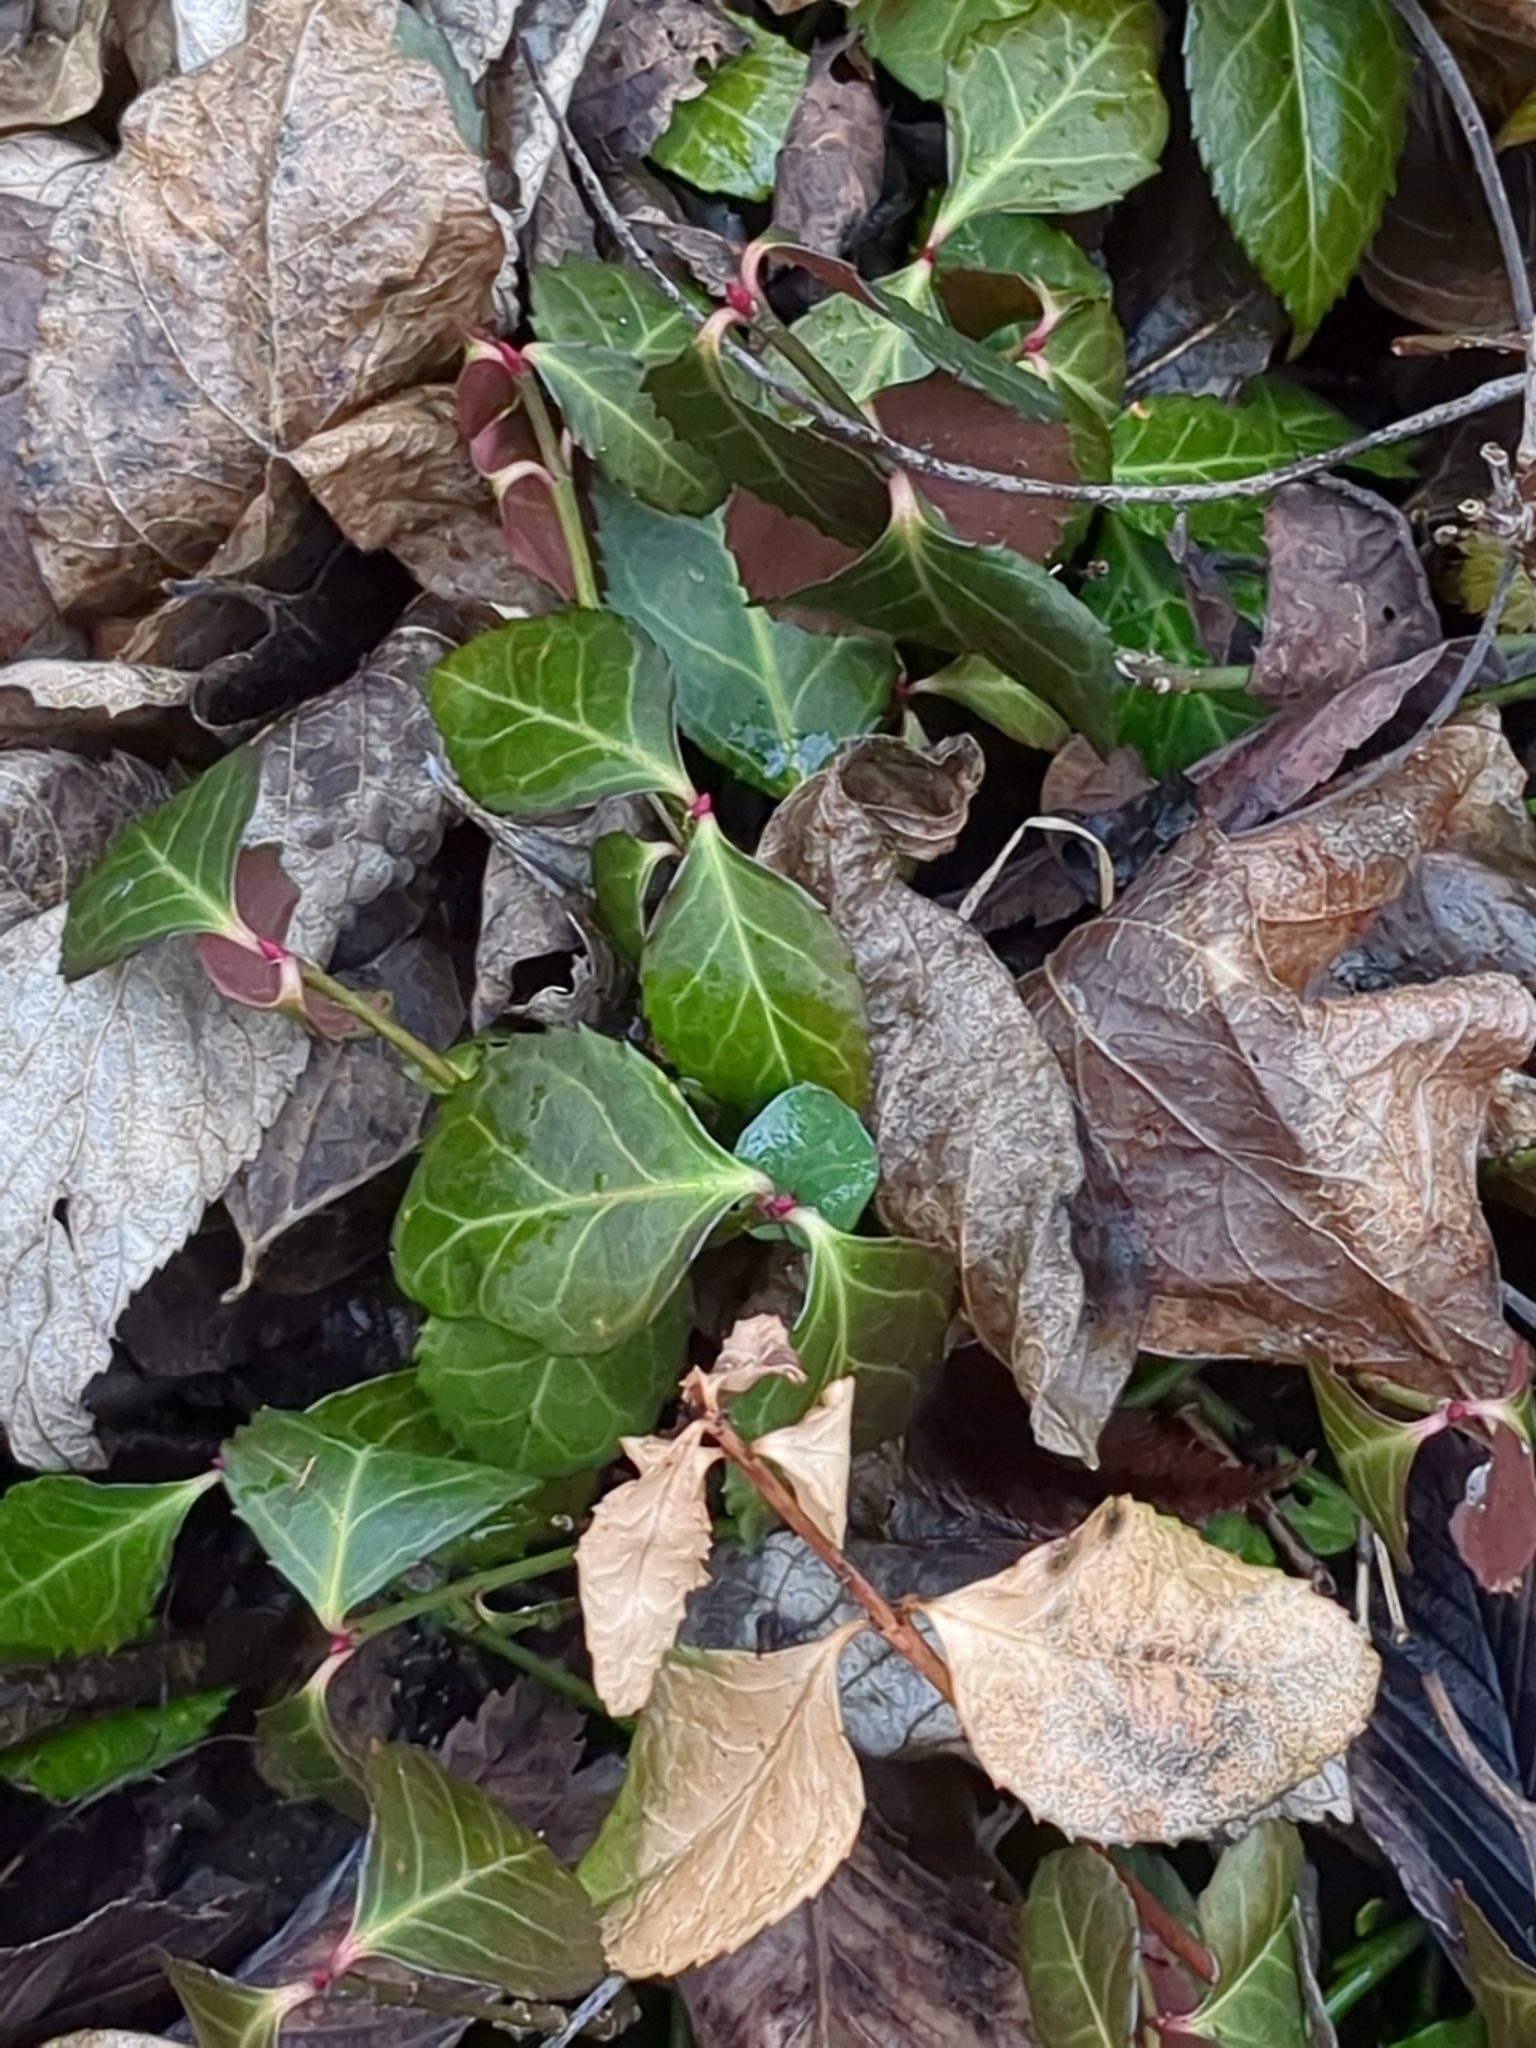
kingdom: Plantae
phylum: Tracheophyta
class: Magnoliopsida
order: Celastrales
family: Celastraceae
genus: Euonymus
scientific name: Euonymus fortunei
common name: Climbing euonymus
